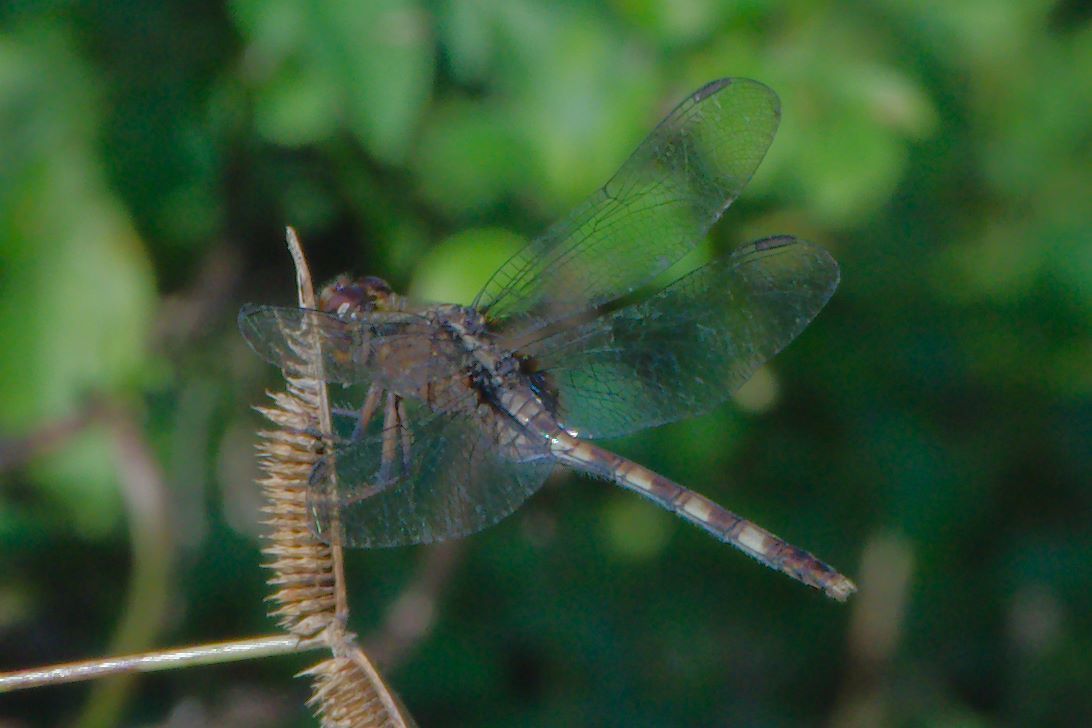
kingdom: Animalia
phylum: Arthropoda
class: Insecta
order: Odonata
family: Libellulidae
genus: Erythemis
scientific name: Erythemis plebeja
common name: Pin-tailed pondhawk
